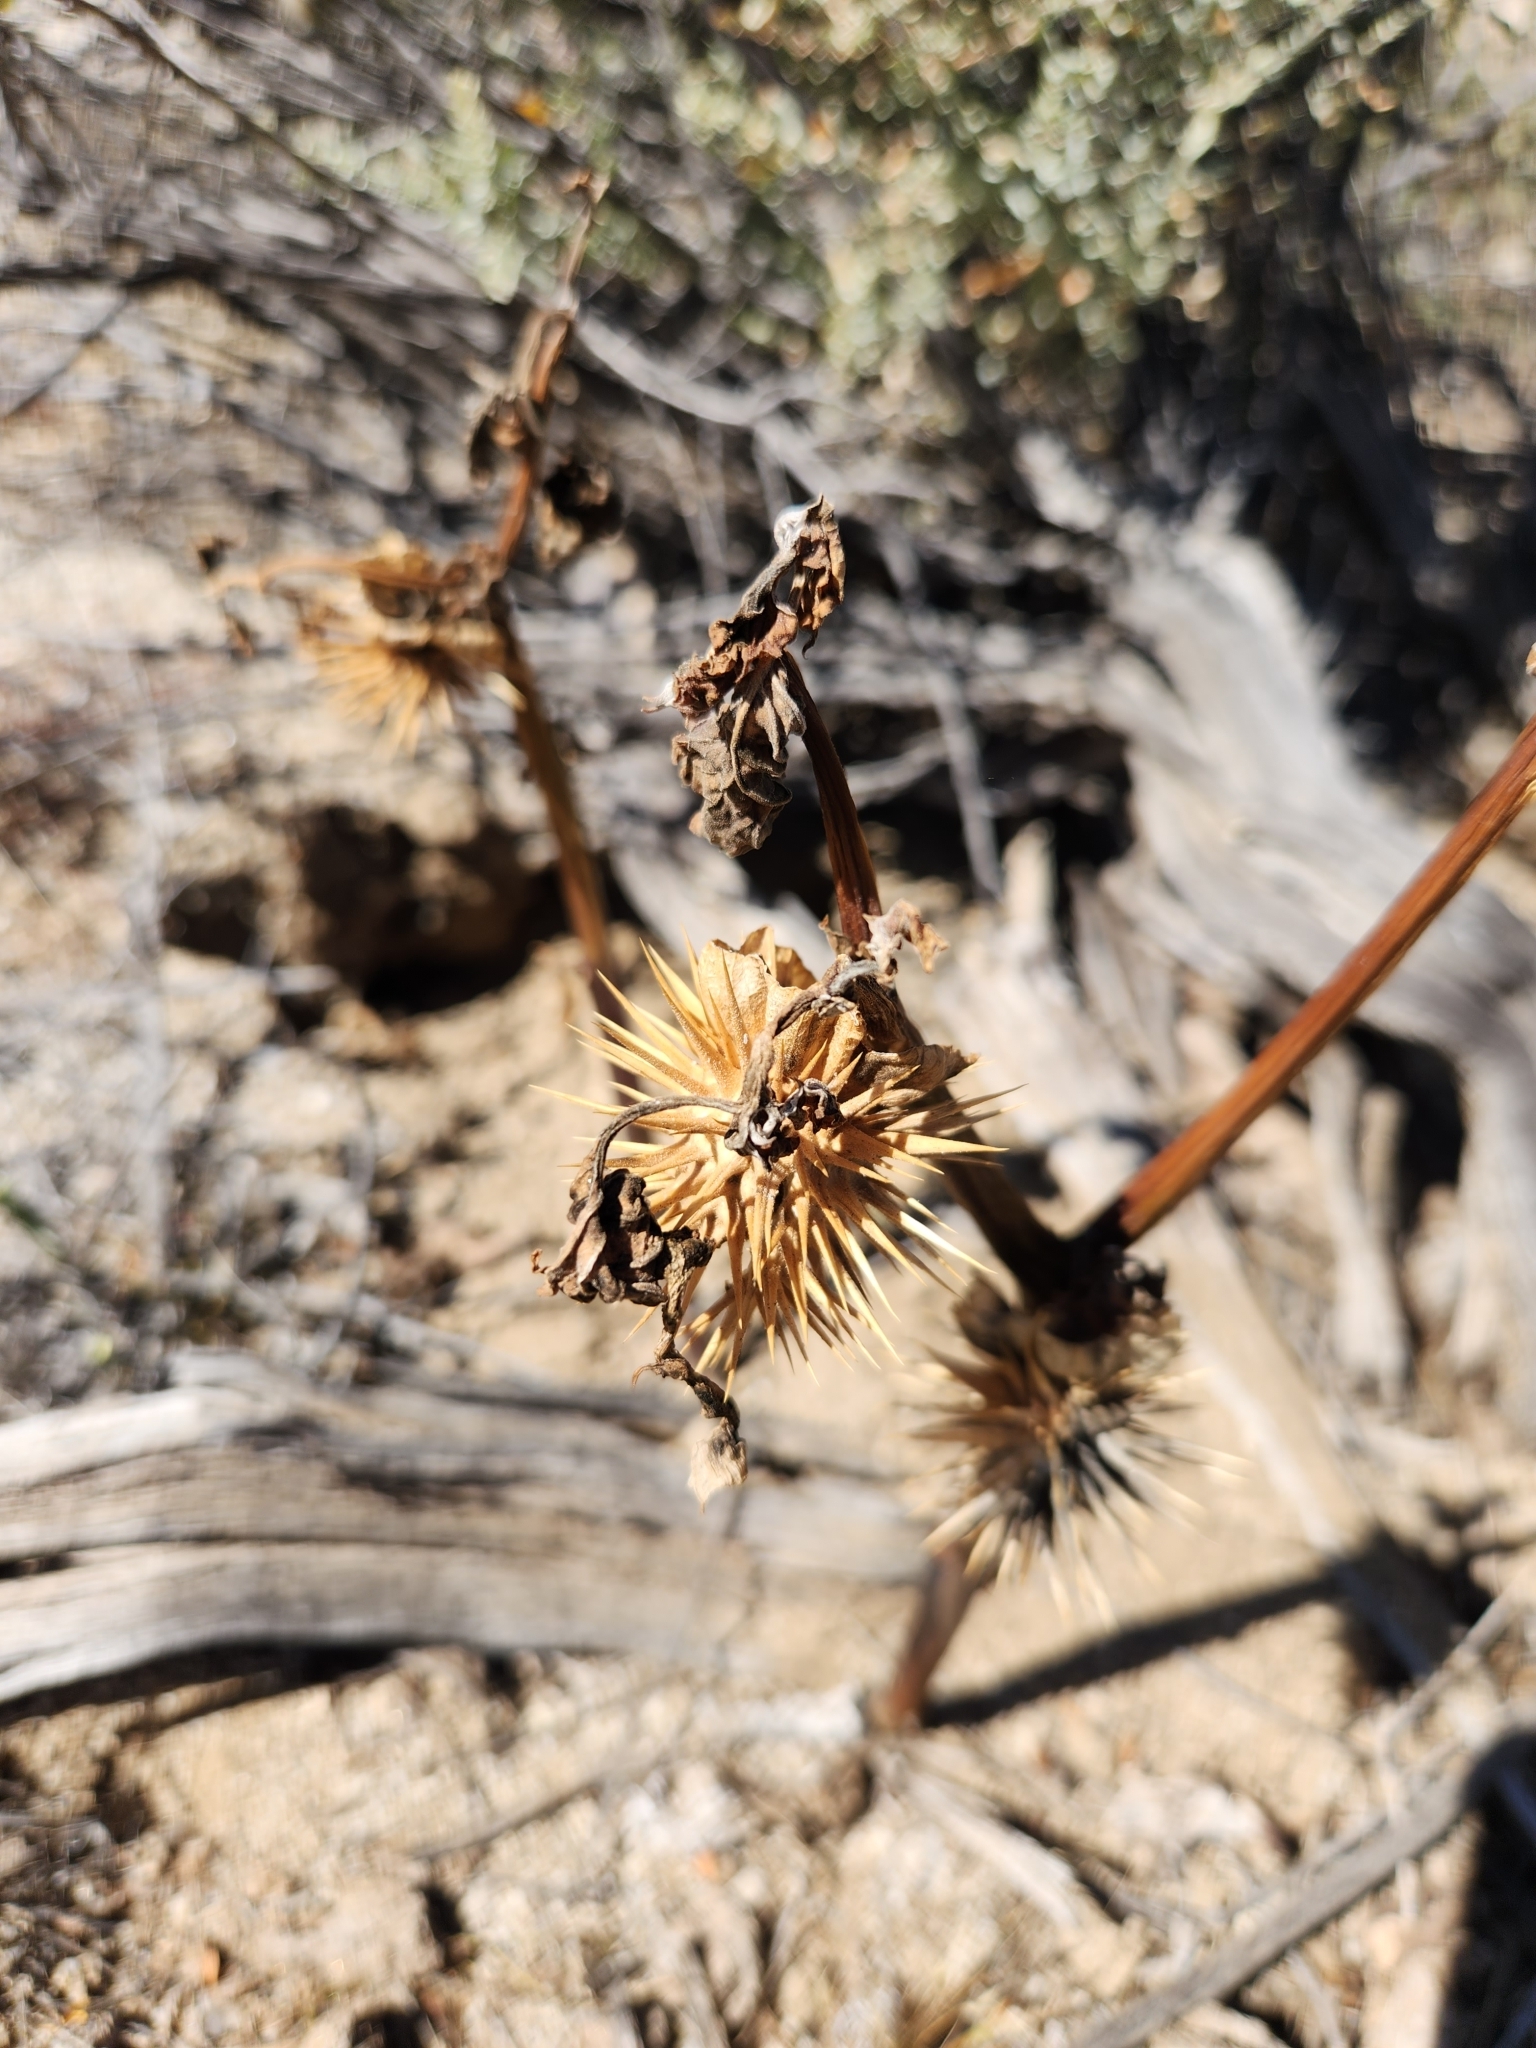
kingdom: Plantae
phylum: Tracheophyta
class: Magnoliopsida
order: Solanales
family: Solanaceae
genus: Datura
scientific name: Datura discolor
